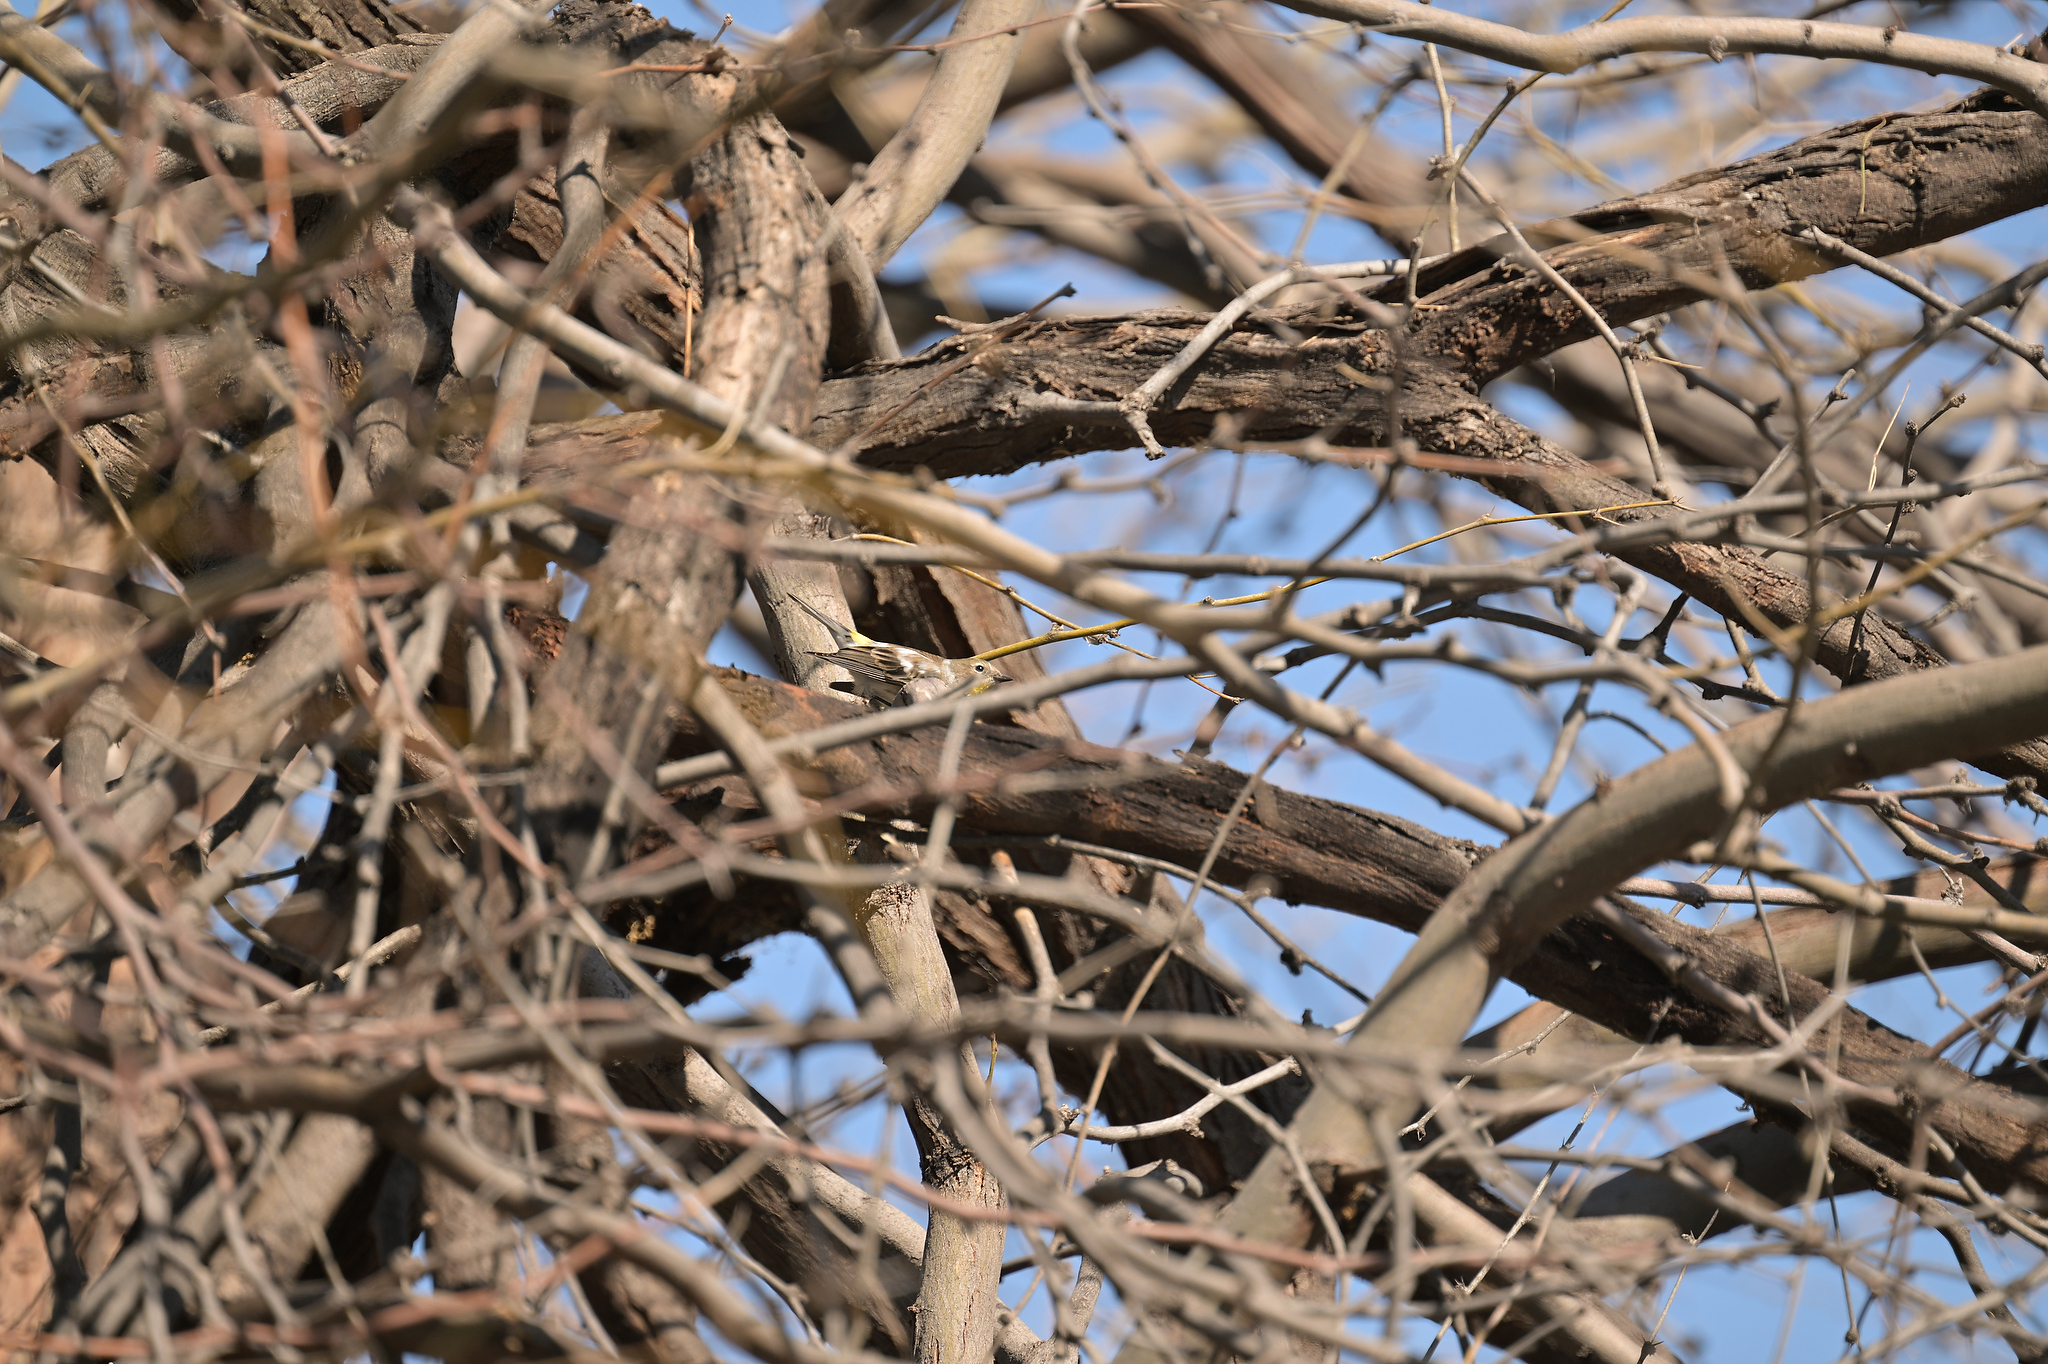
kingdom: Animalia
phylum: Chordata
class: Aves
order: Passeriformes
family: Parulidae
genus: Setophaga
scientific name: Setophaga coronata
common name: Myrtle warbler
